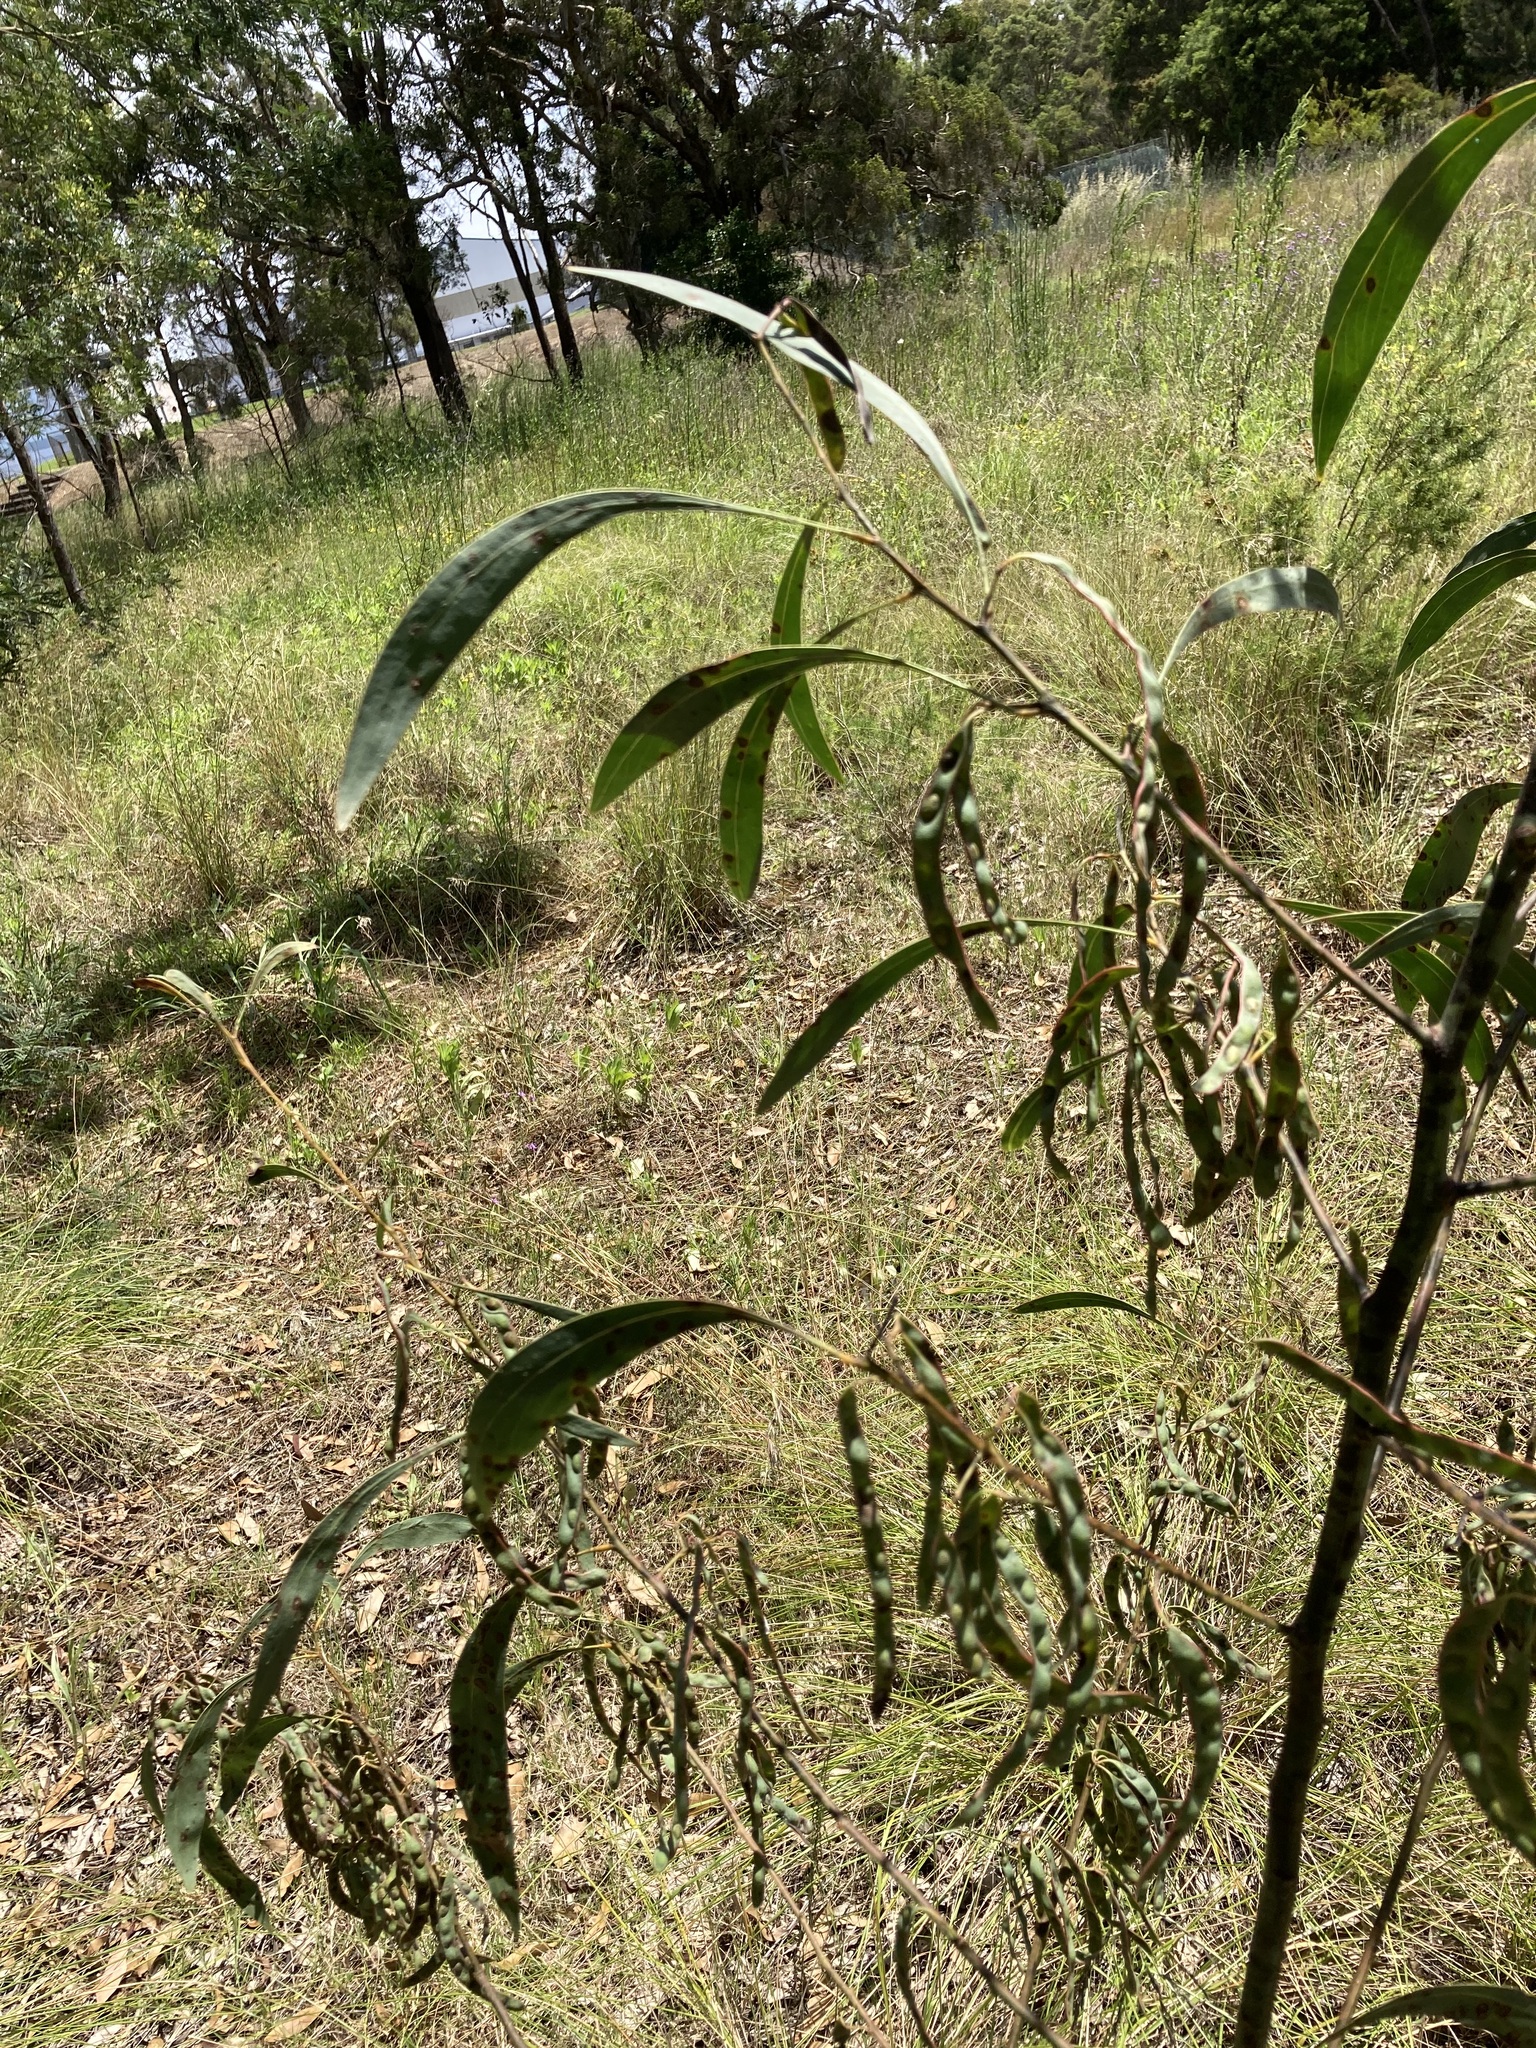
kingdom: Plantae
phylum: Tracheophyta
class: Magnoliopsida
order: Fabales
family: Fabaceae
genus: Acacia
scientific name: Acacia falcata
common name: Burra acacia
